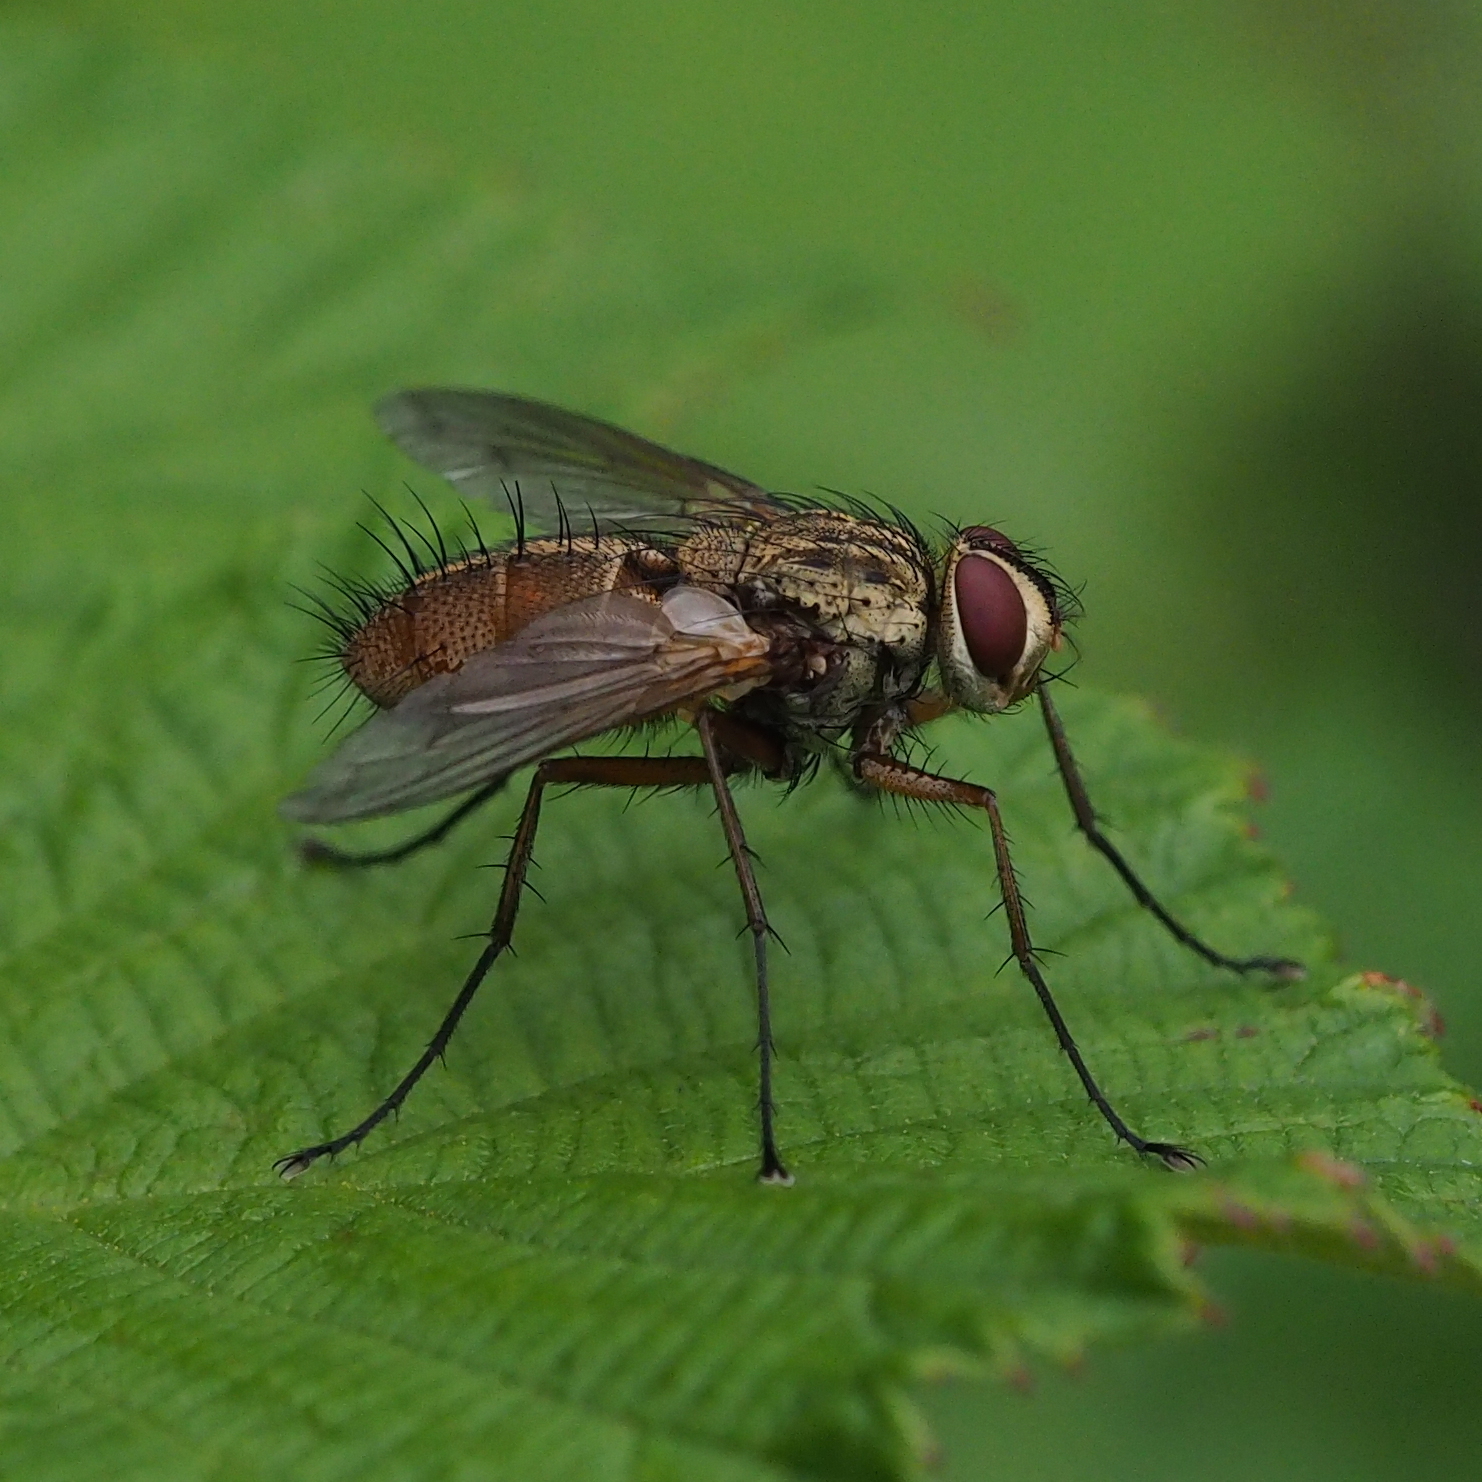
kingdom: Animalia
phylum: Arthropoda
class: Insecta
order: Diptera
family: Tachinidae
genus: Dexia
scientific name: Dexia rustica
